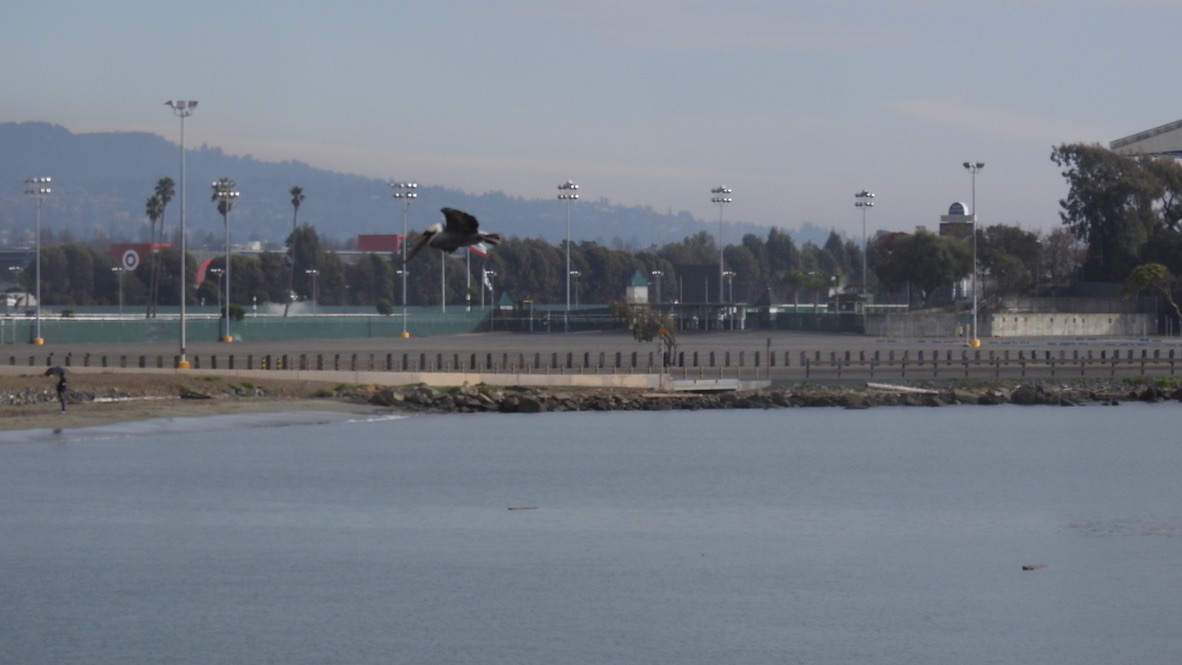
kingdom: Animalia
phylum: Chordata
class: Aves
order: Pelecaniformes
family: Pelecanidae
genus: Pelecanus
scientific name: Pelecanus occidentalis
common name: Brown pelican
